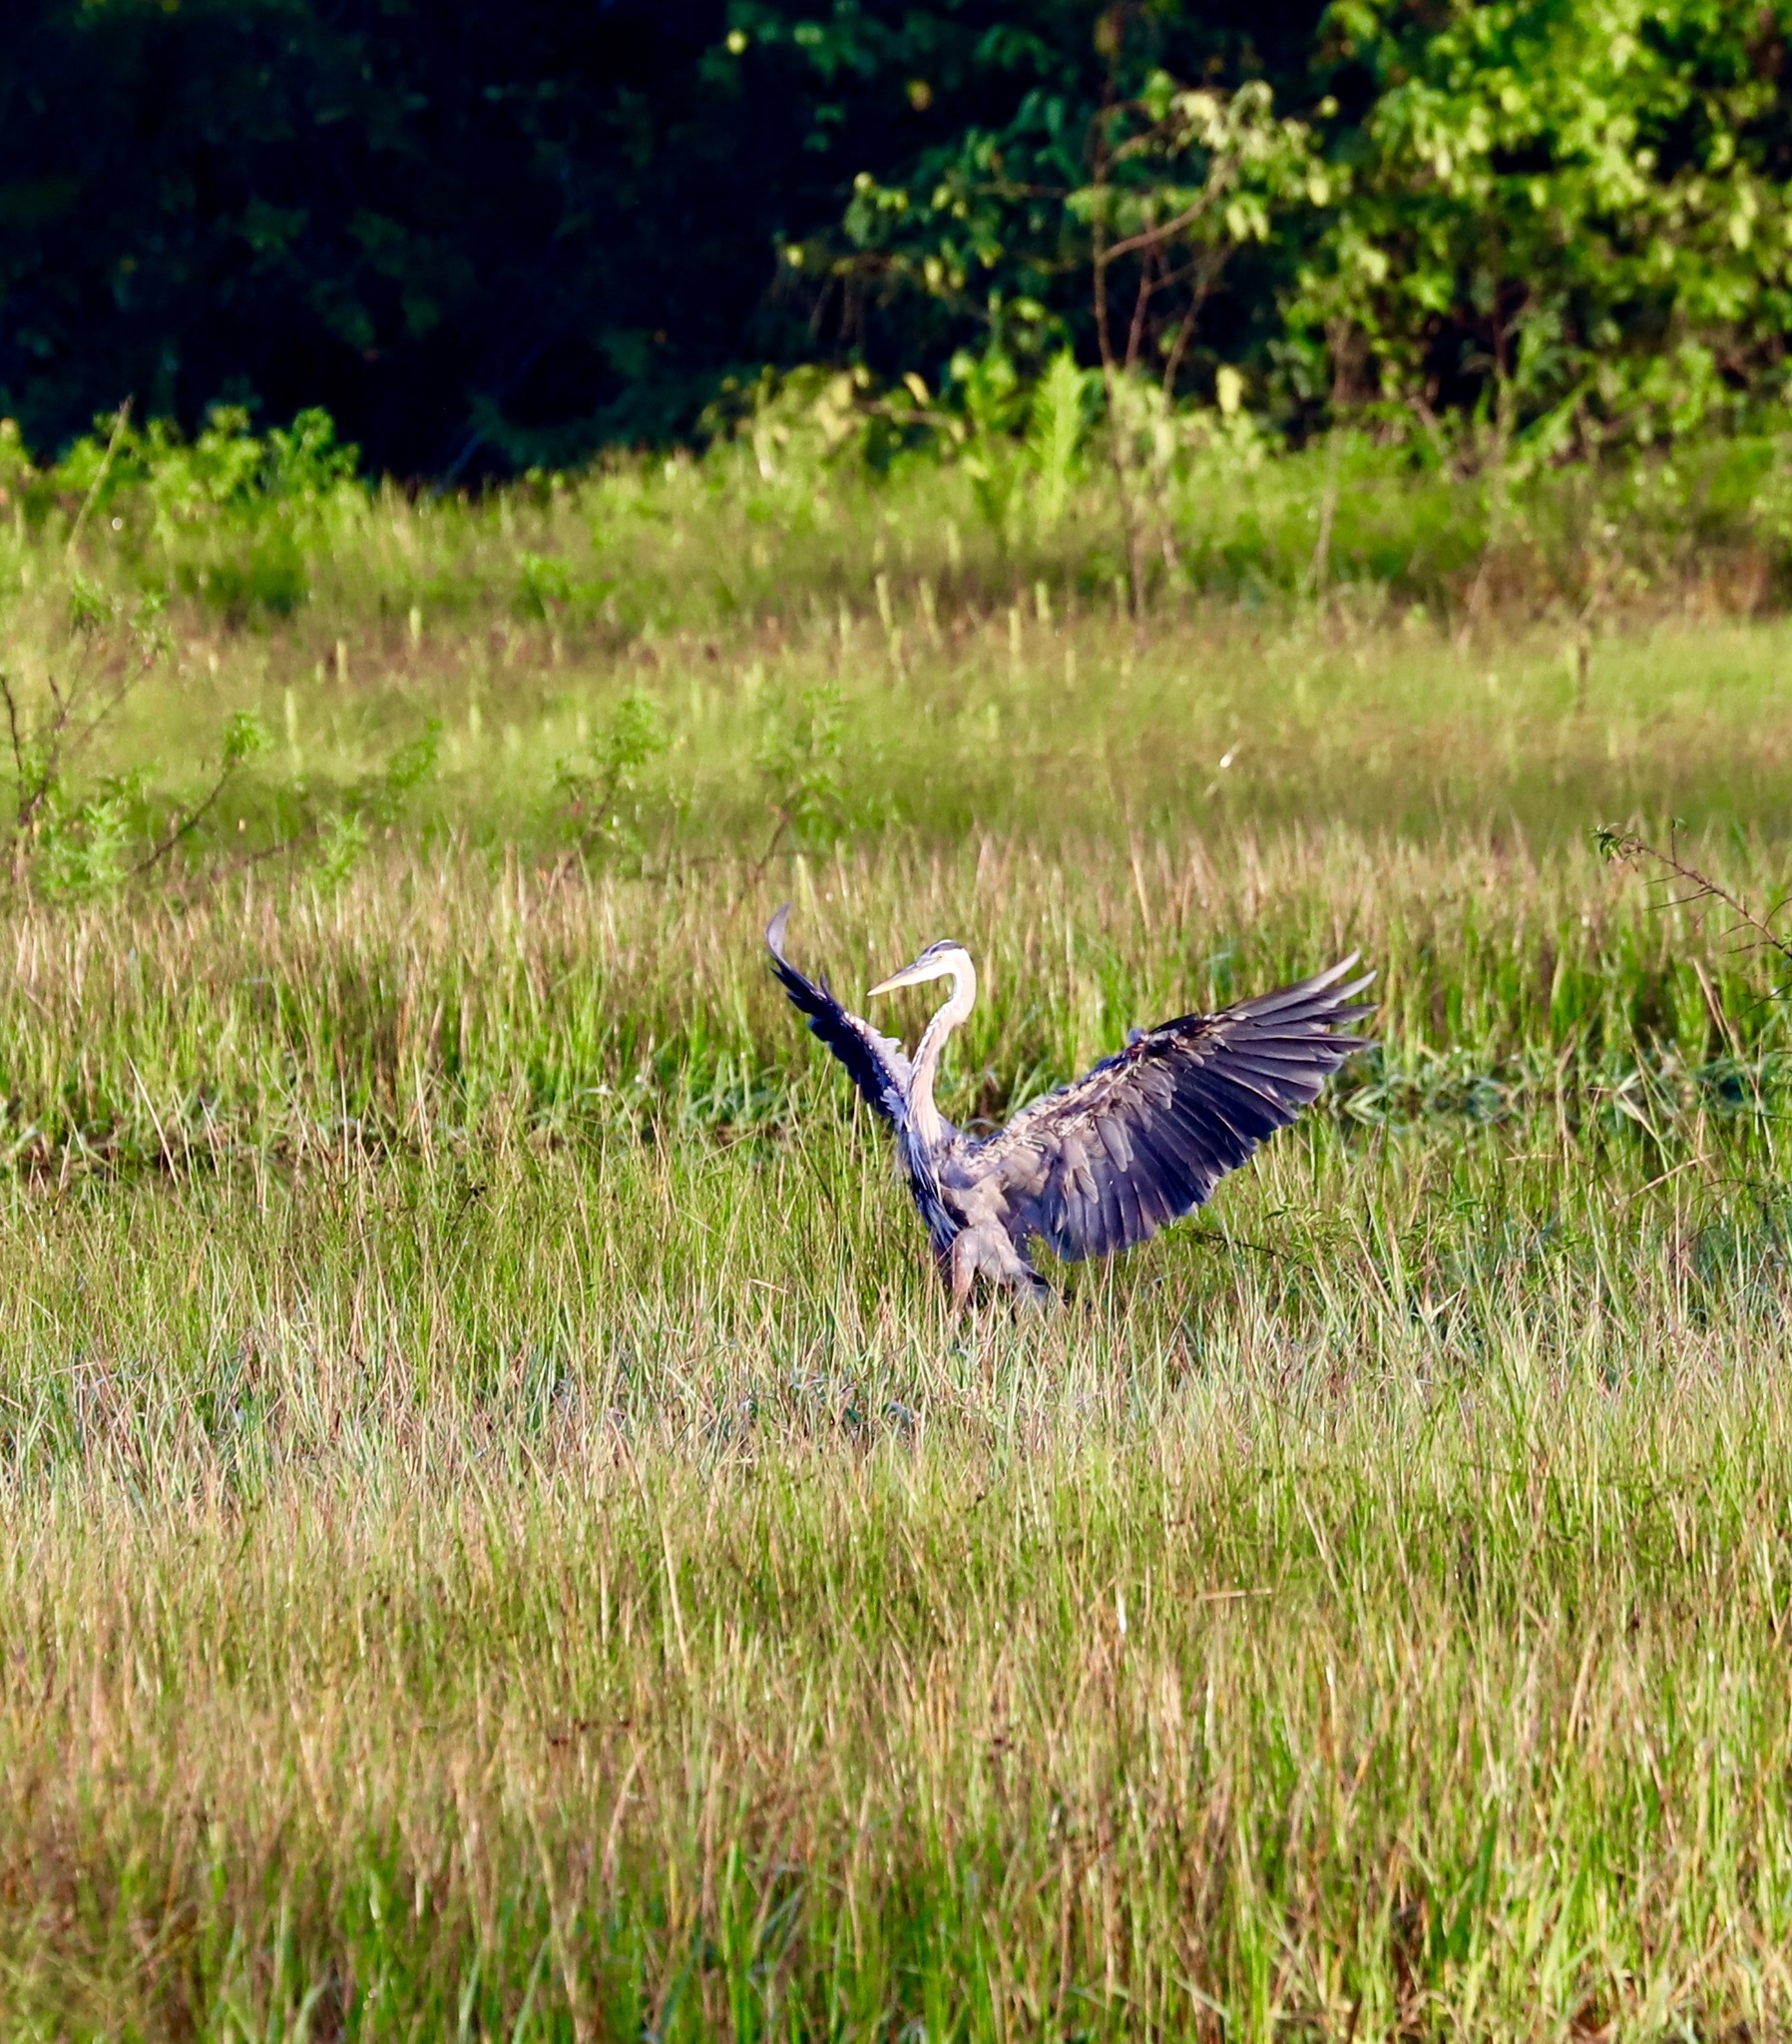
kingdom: Animalia
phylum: Chordata
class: Aves
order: Pelecaniformes
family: Ardeidae
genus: Ardea
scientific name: Ardea herodias
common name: Great blue heron
